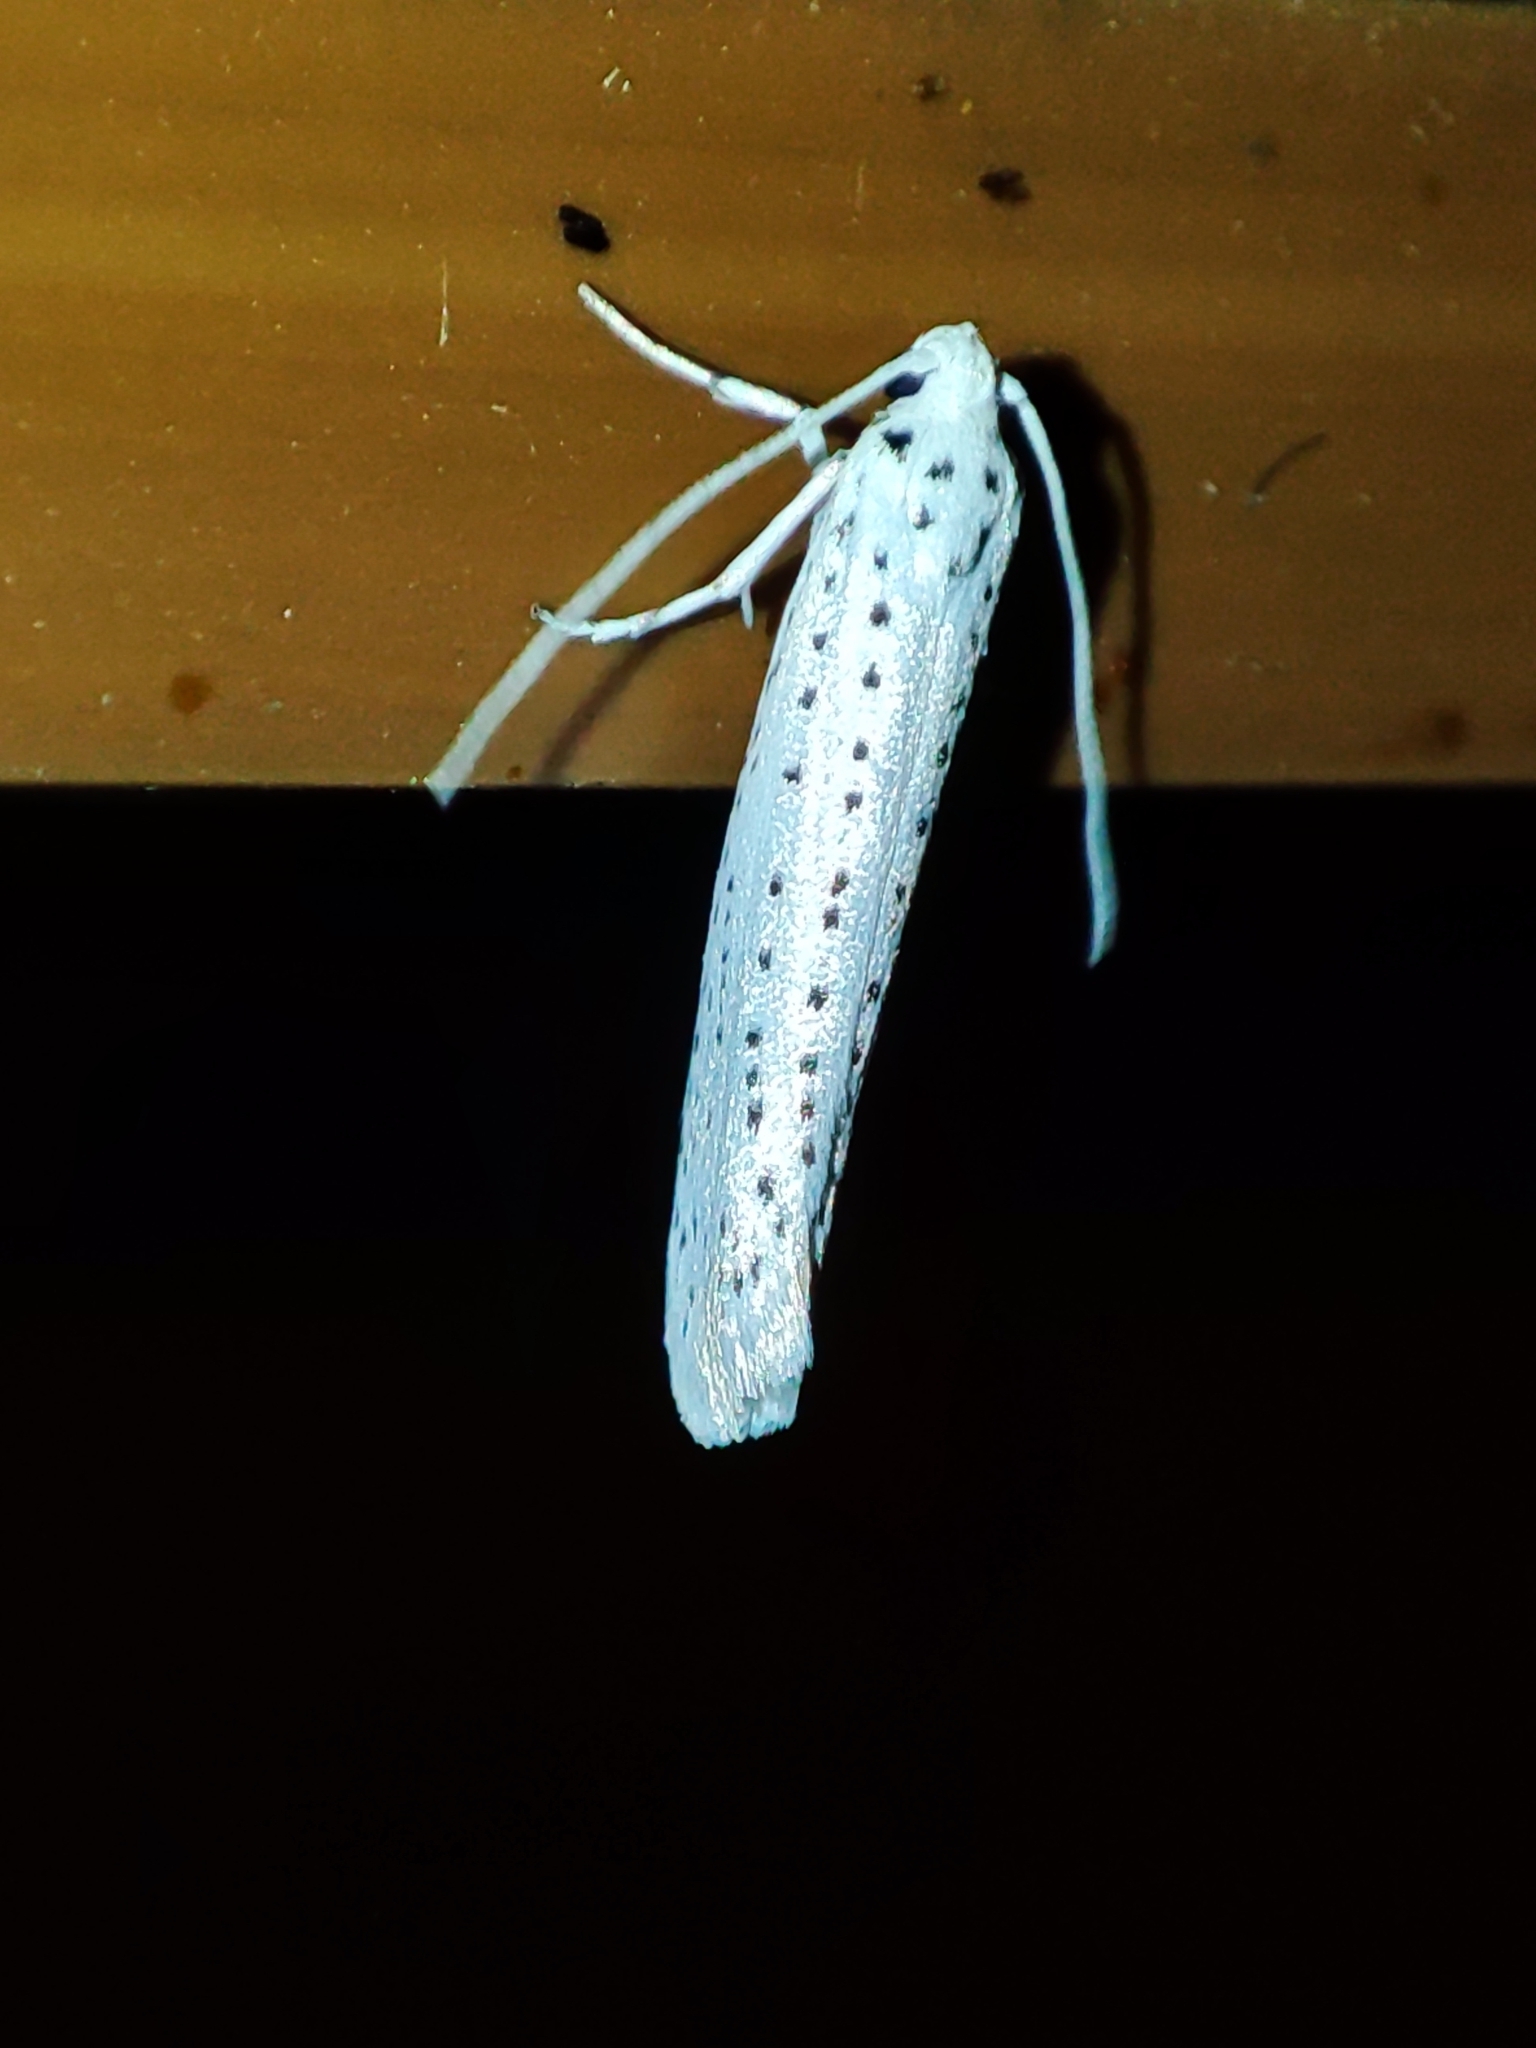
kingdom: Animalia
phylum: Arthropoda
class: Insecta
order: Lepidoptera
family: Yponomeutidae
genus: Yponomeuta
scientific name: Yponomeuta evonymella
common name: Bird-cherry ermine
